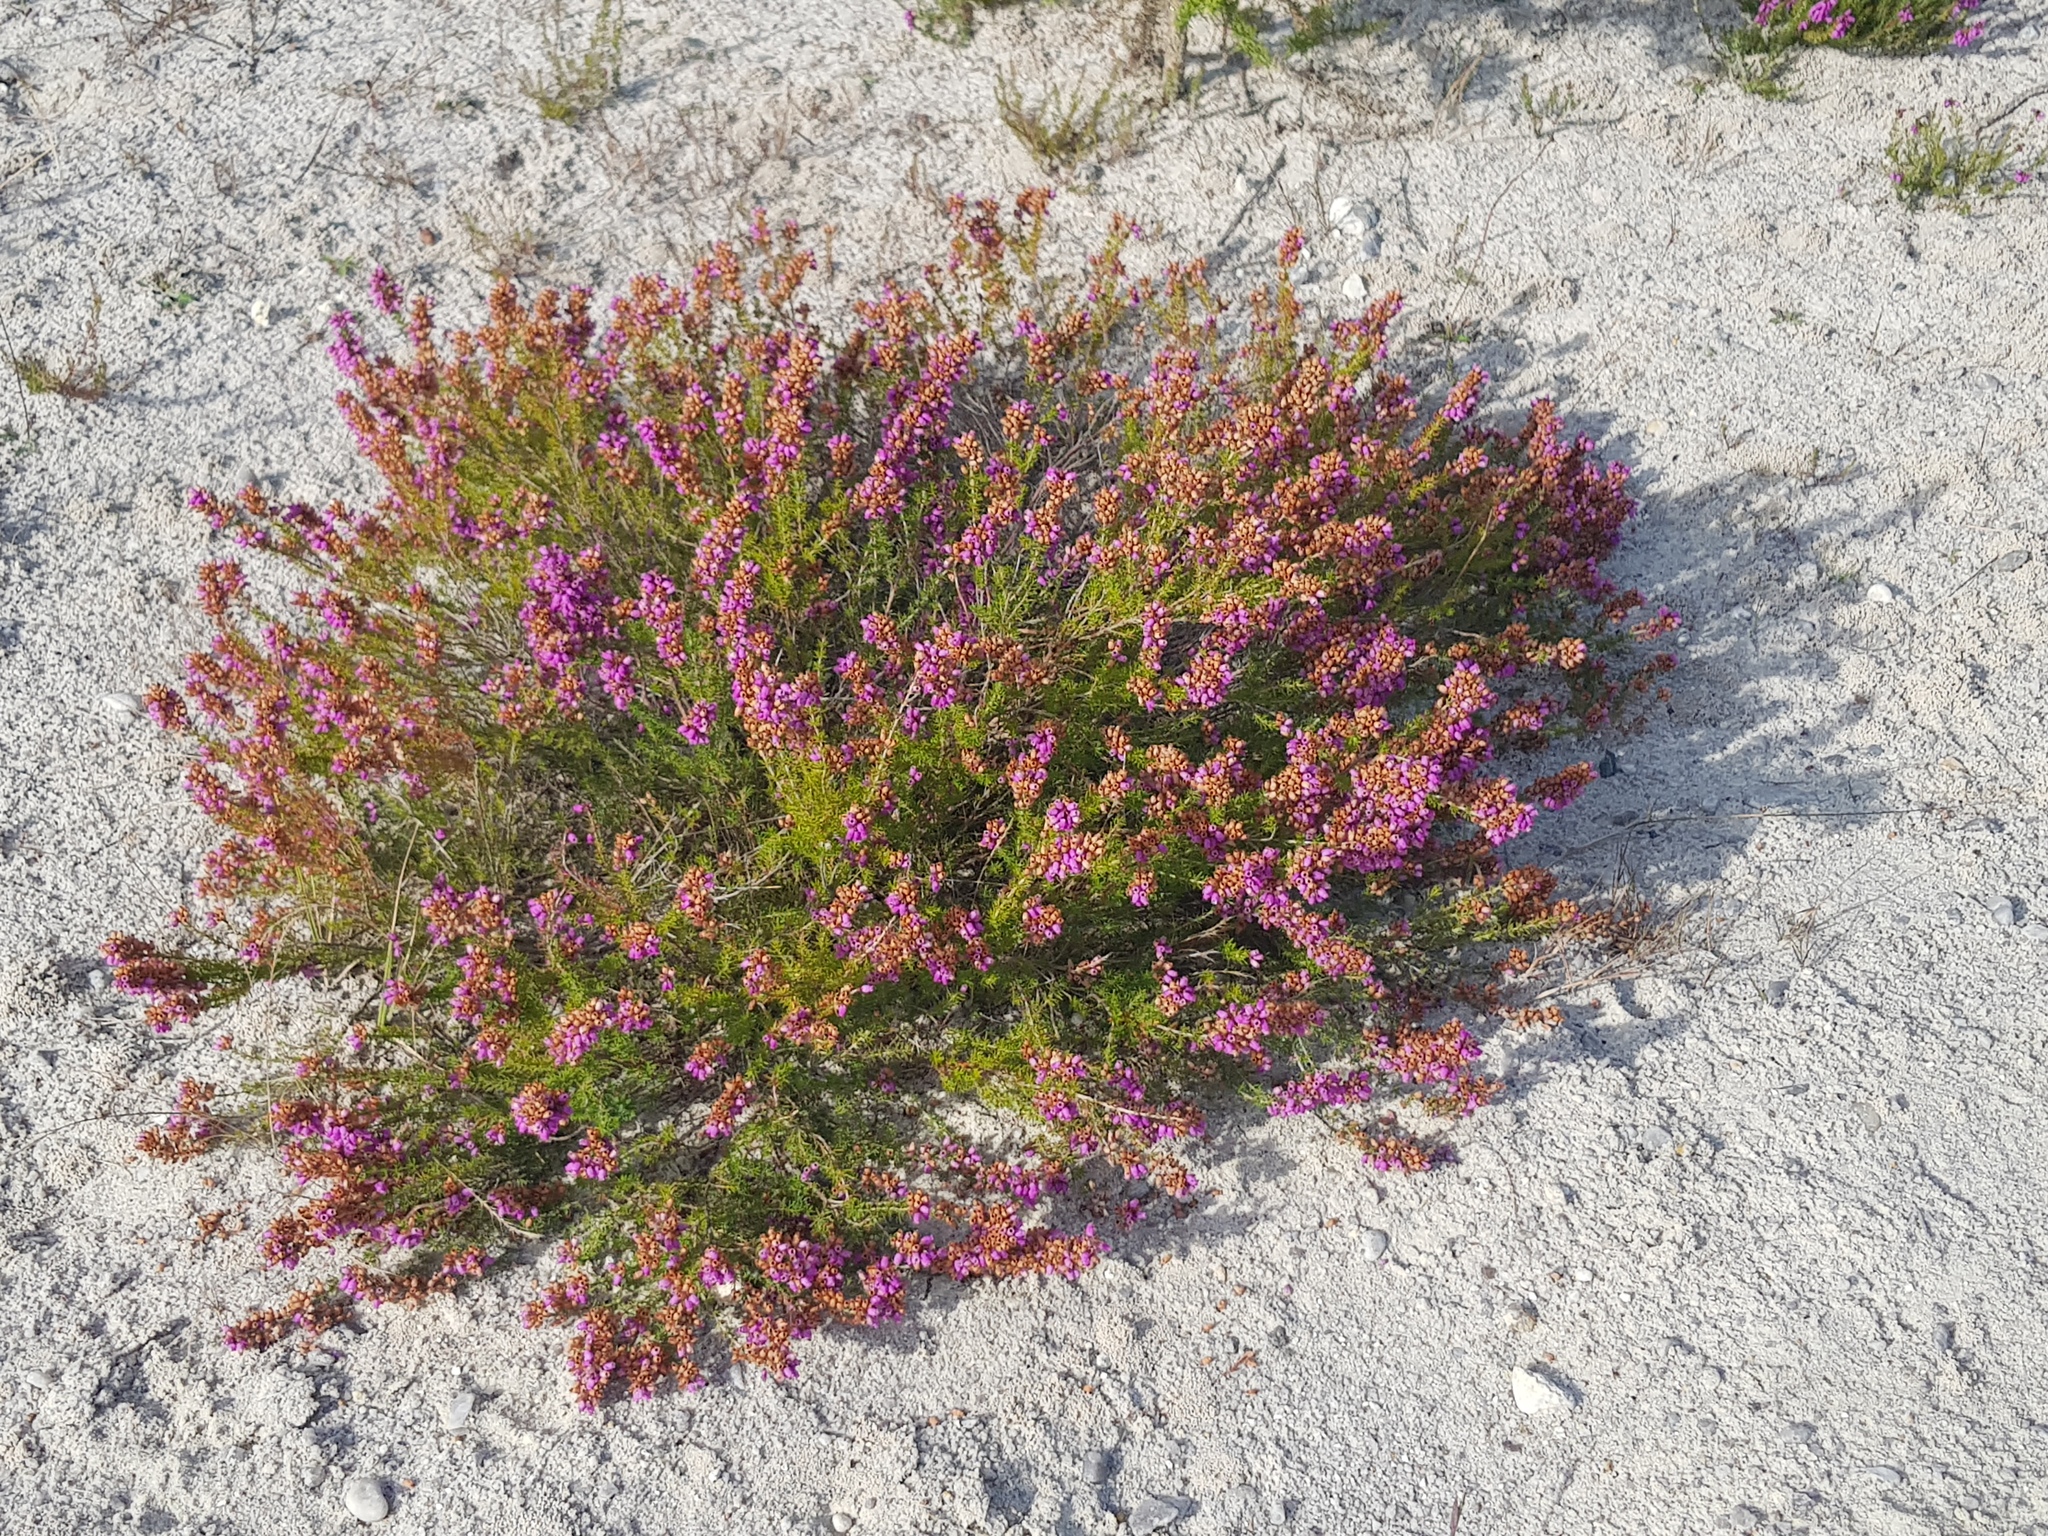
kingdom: Plantae
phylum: Tracheophyta
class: Magnoliopsida
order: Ericales
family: Ericaceae
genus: Erica
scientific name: Erica cinerea
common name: Bell heather
